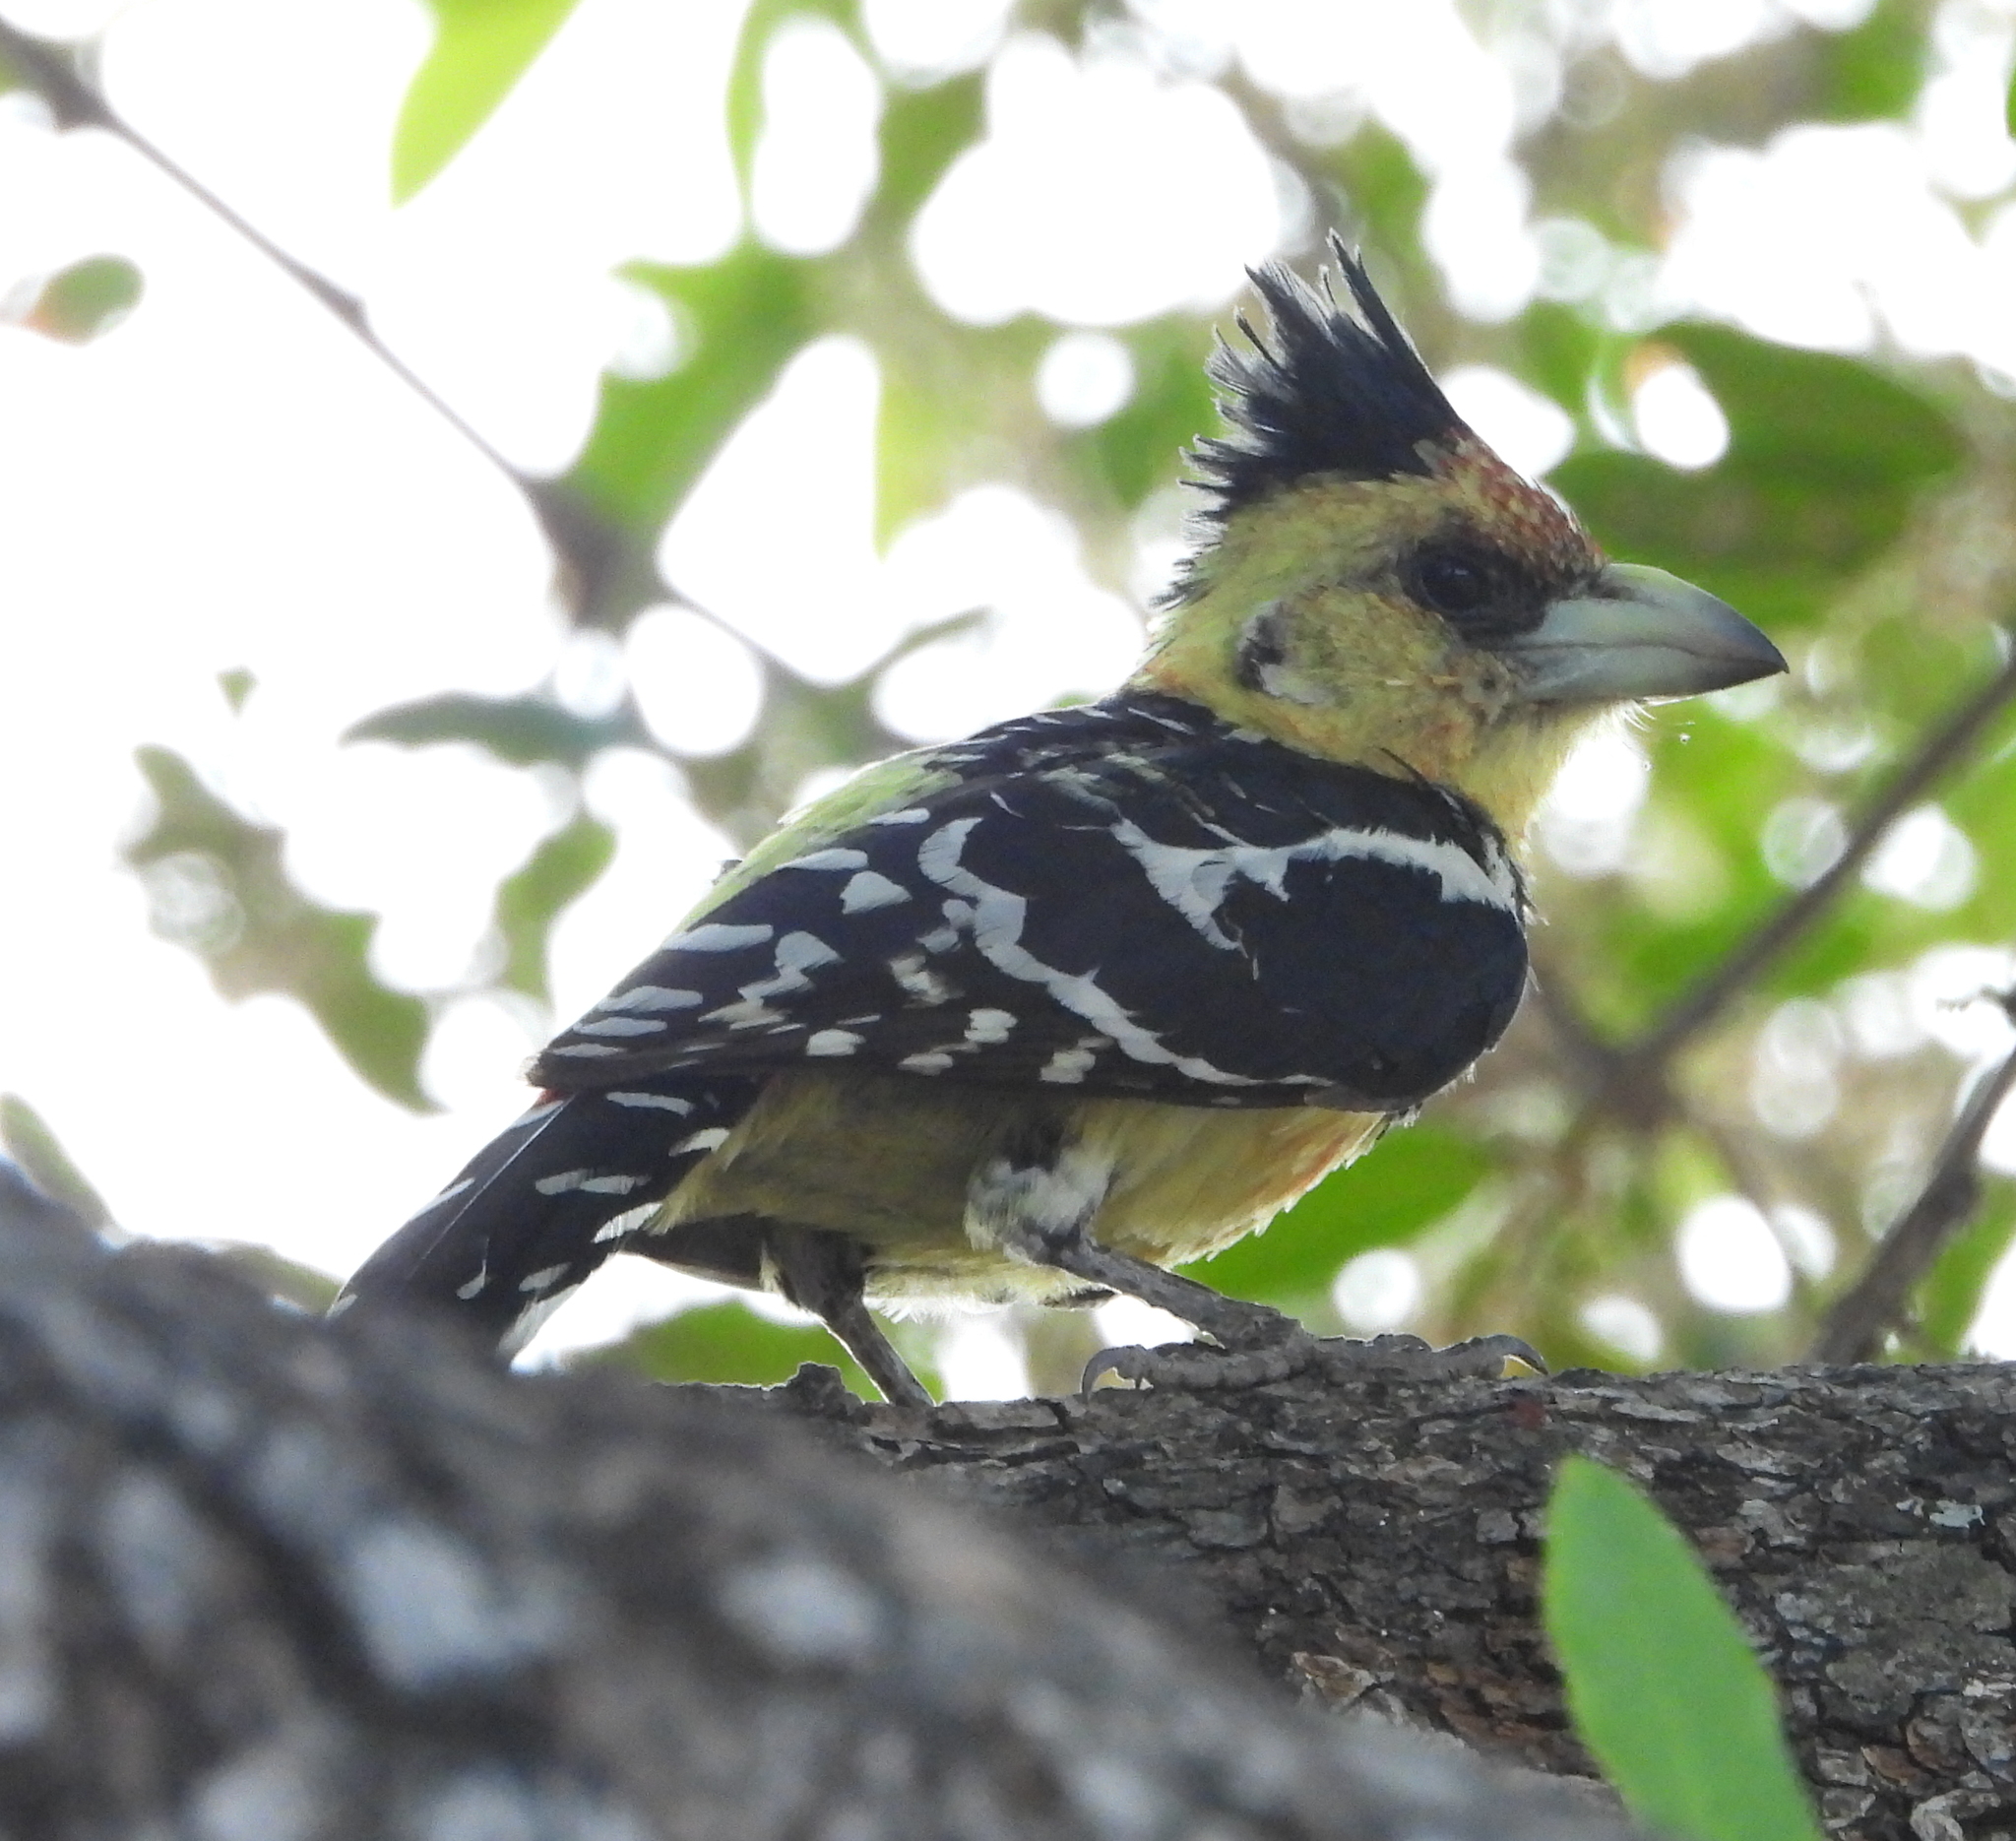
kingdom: Animalia
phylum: Chordata
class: Aves
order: Piciformes
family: Lybiidae
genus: Trachyphonus
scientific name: Trachyphonus vaillantii
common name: Crested barbet
